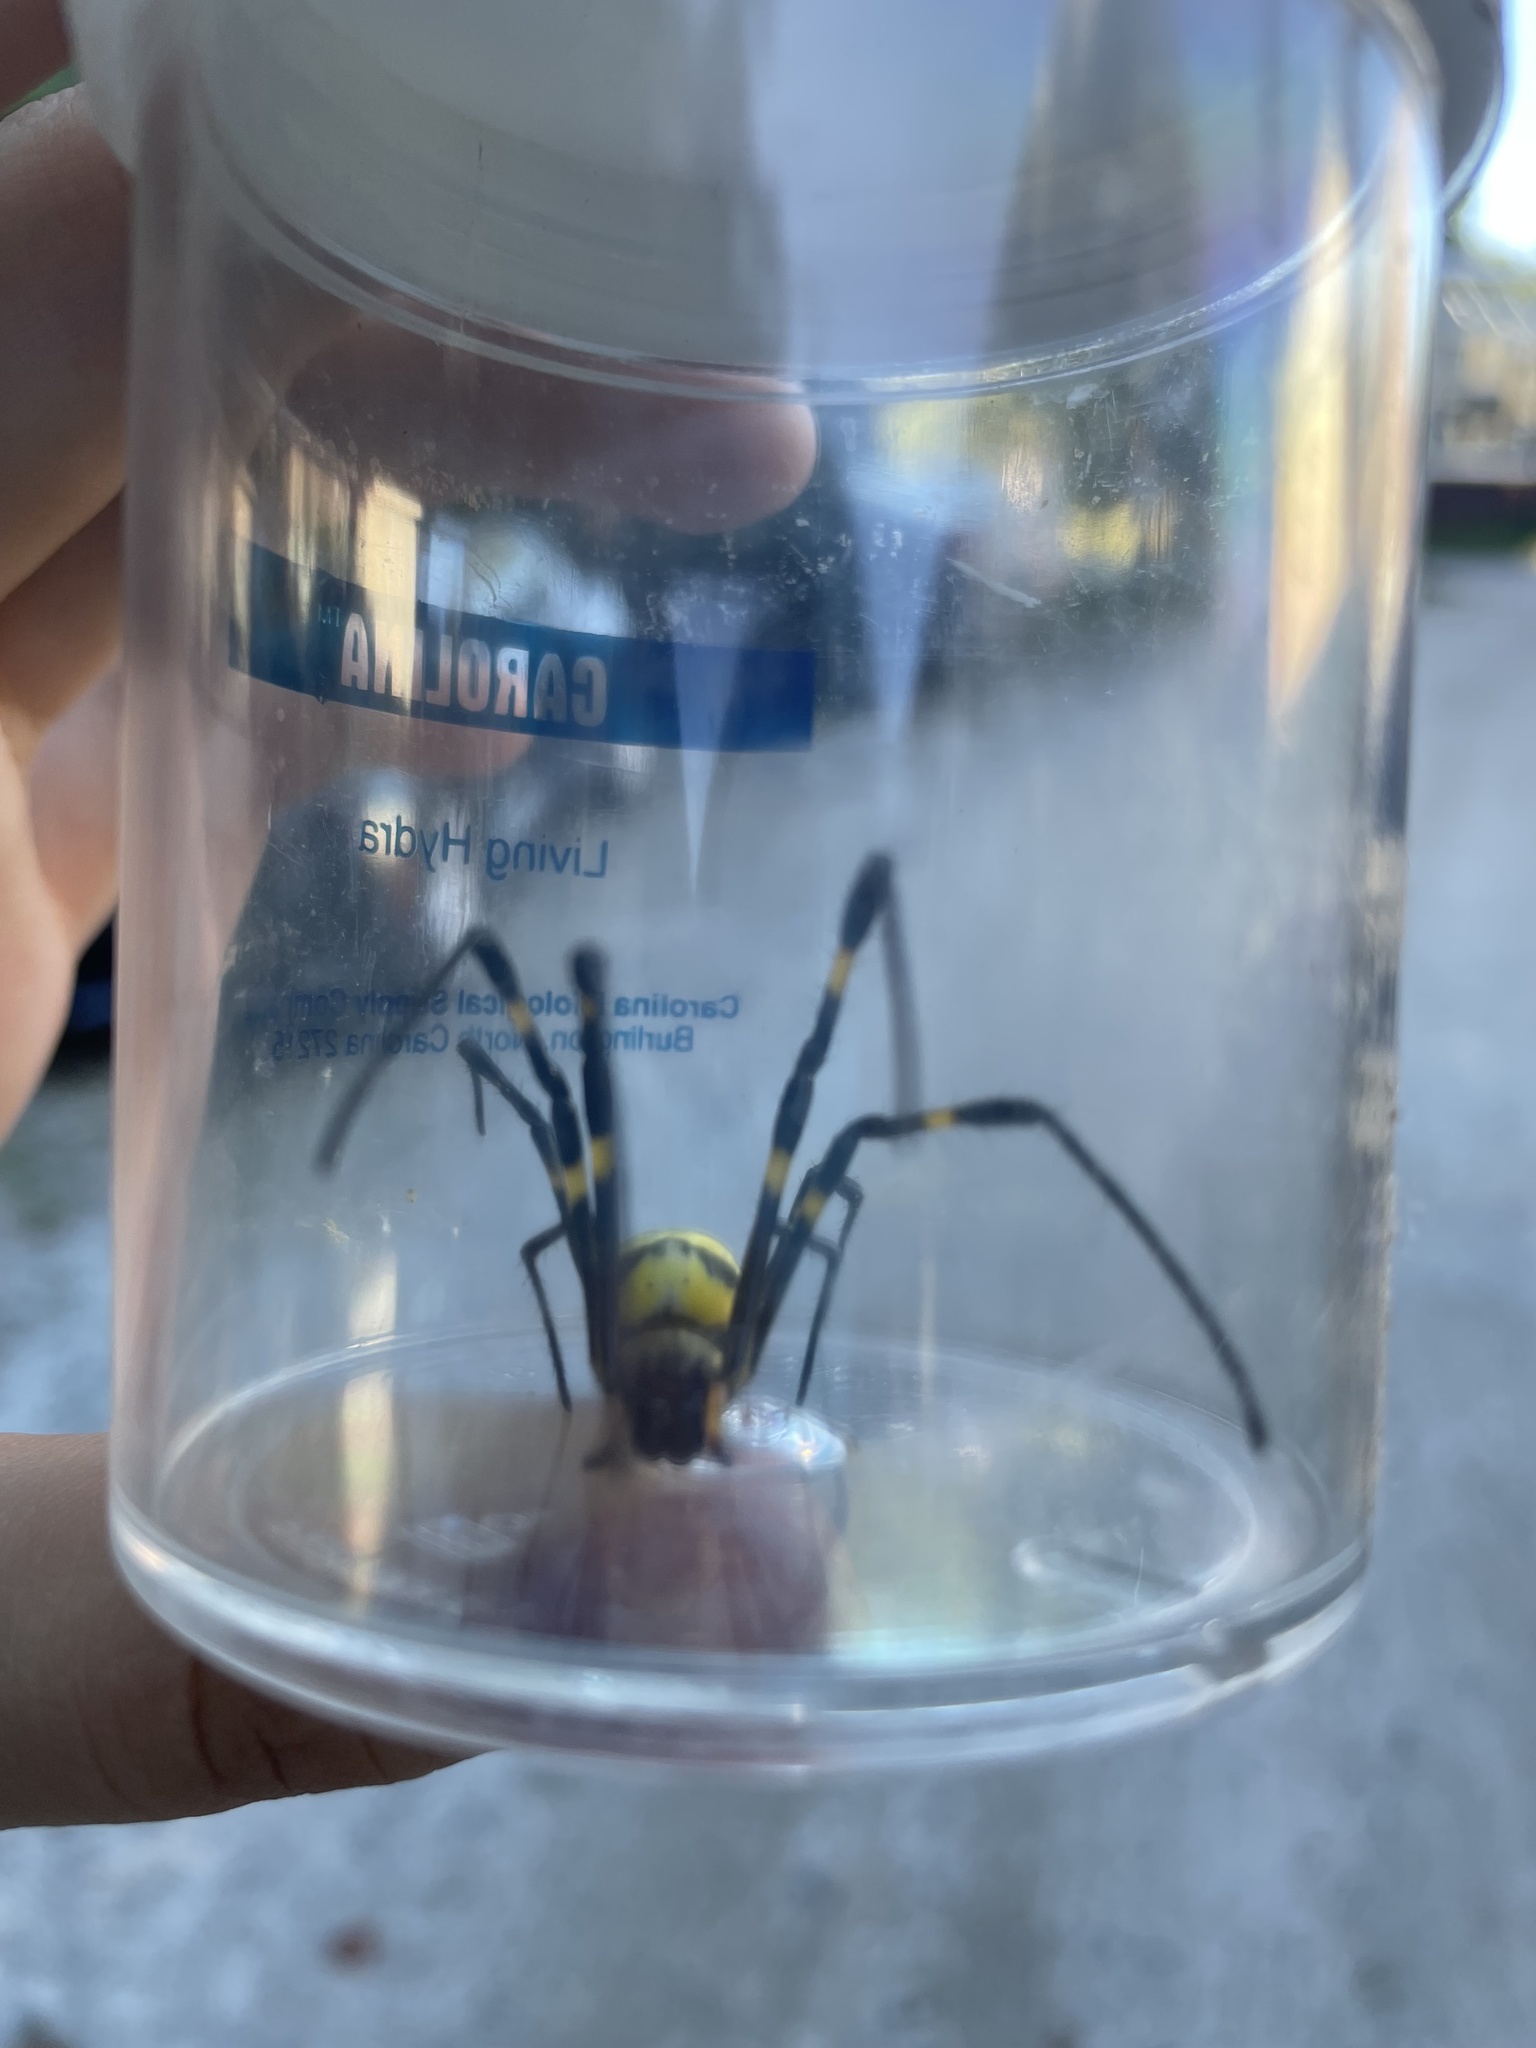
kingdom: Animalia
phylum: Arthropoda
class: Arachnida
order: Araneae
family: Araneidae
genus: Trichonephila
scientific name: Trichonephila clavata
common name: Jorō spider
